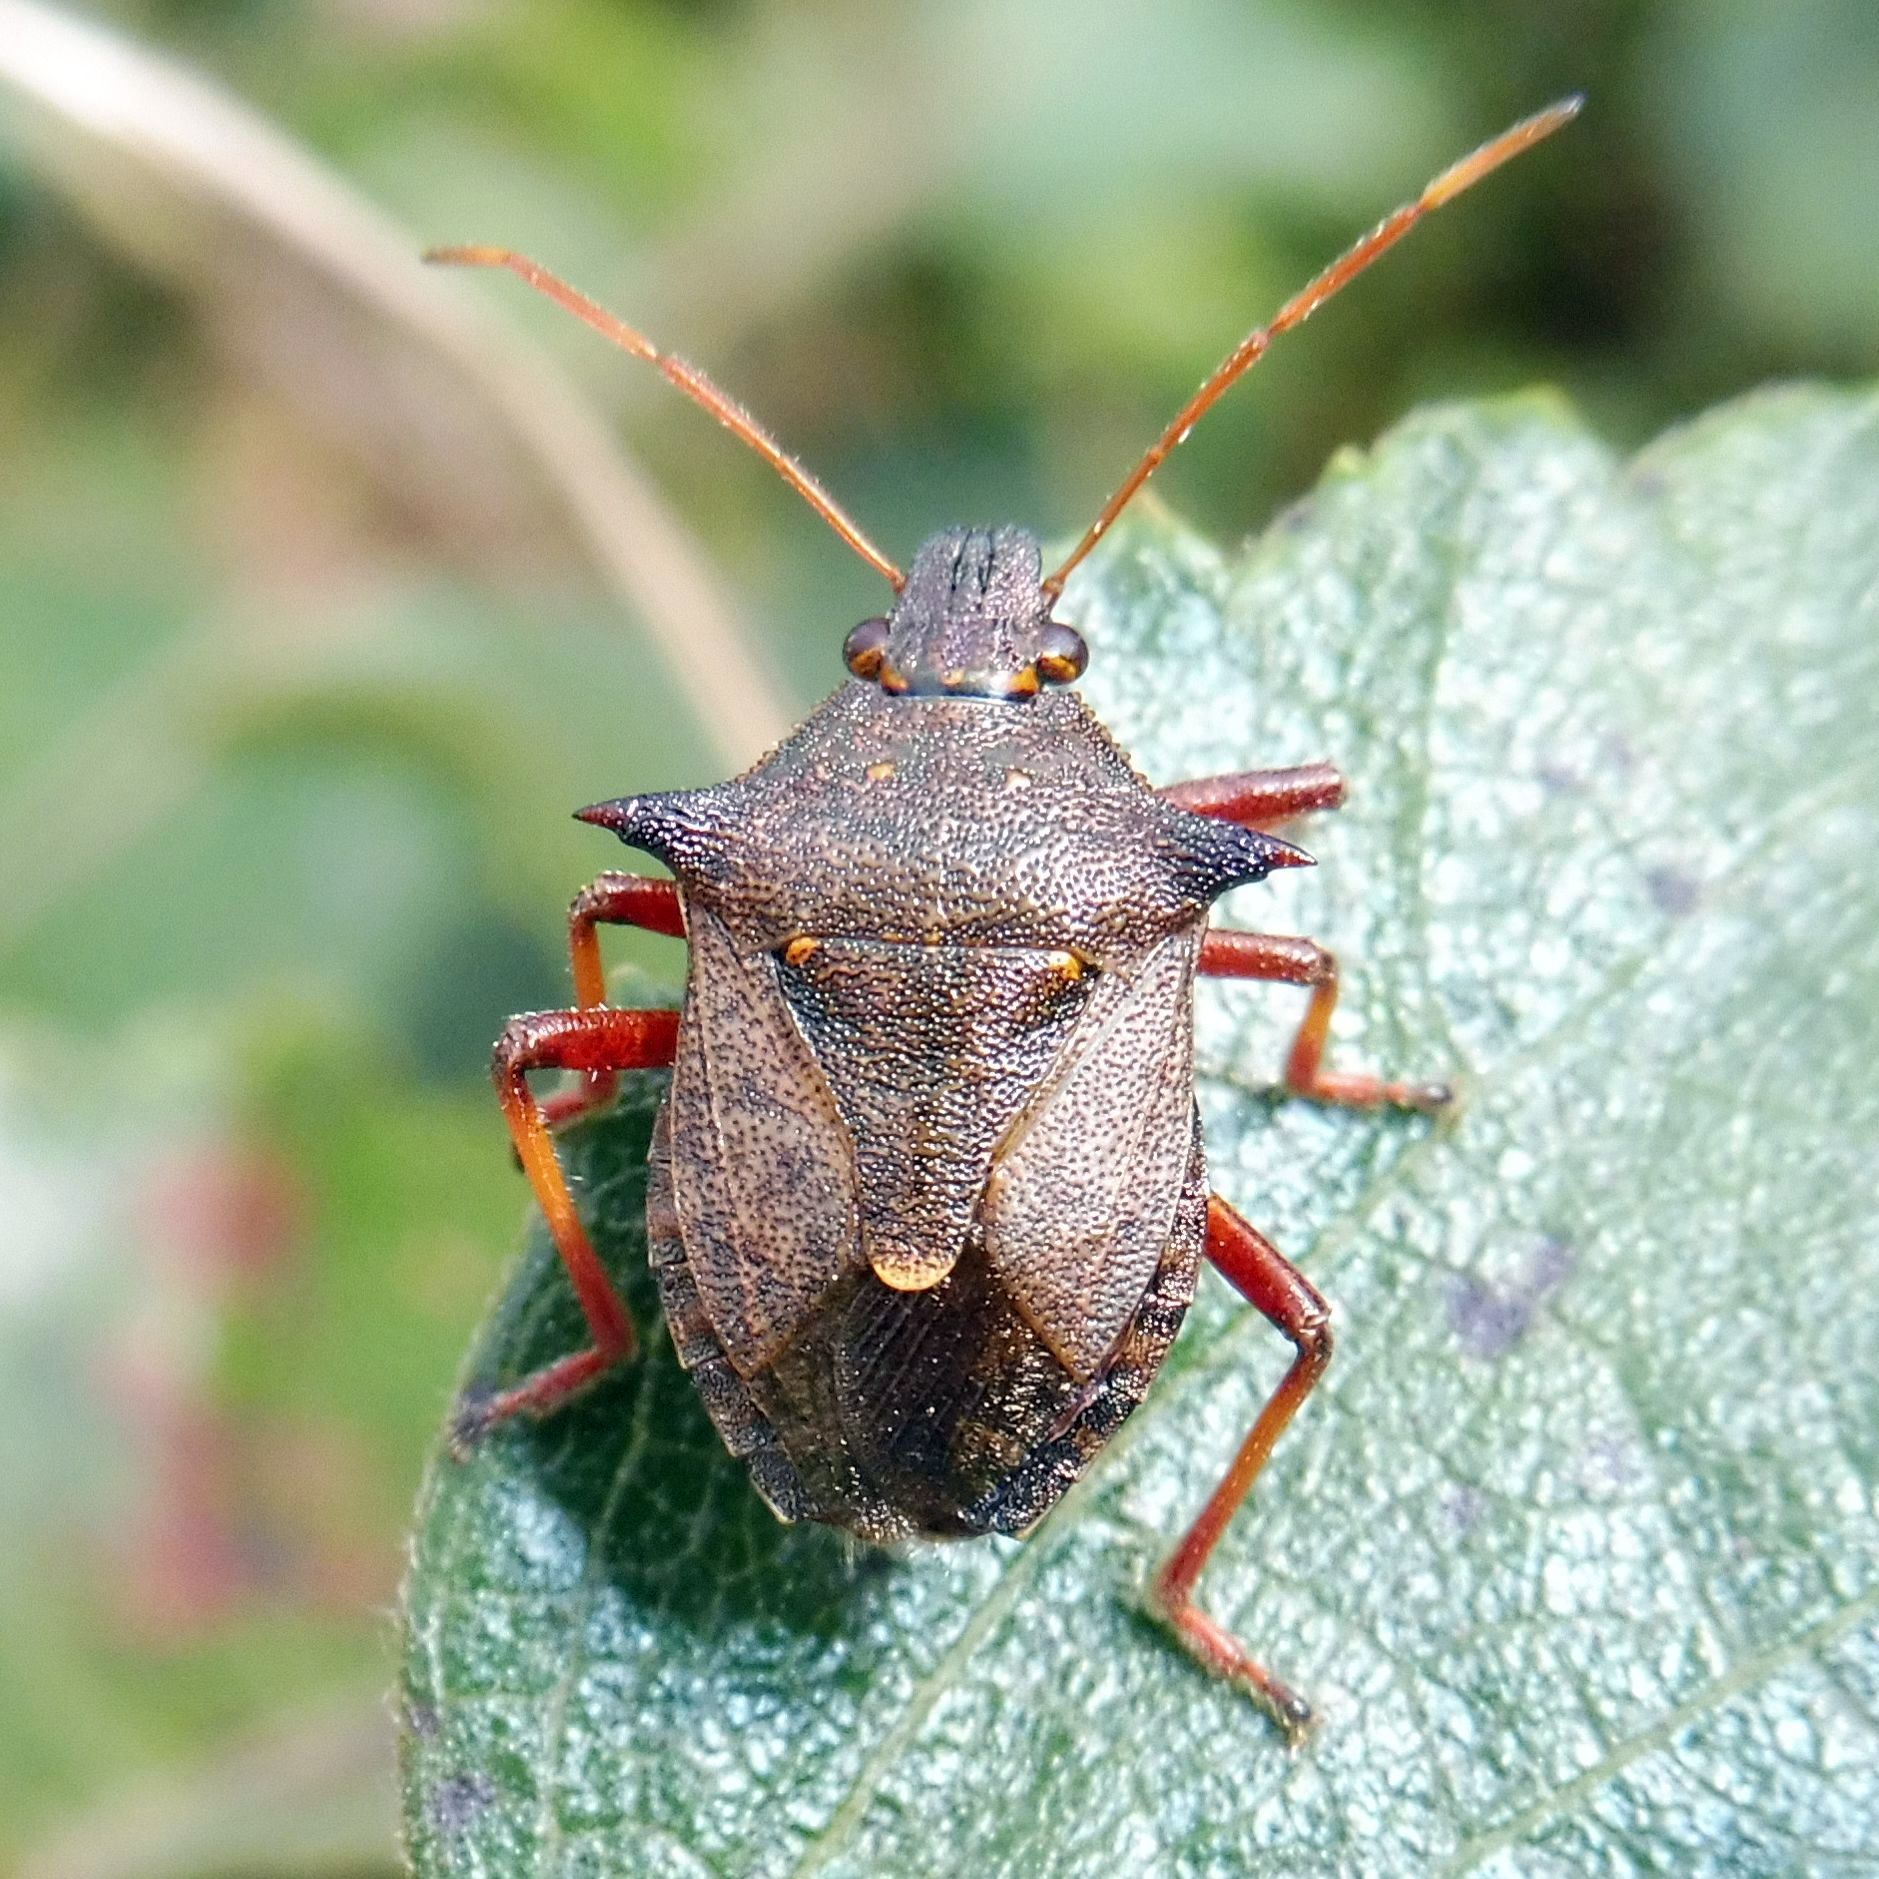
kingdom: Animalia
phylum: Arthropoda
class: Insecta
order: Hemiptera
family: Pentatomidae
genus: Picromerus
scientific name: Picromerus bidens
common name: Spiked shieldbug
